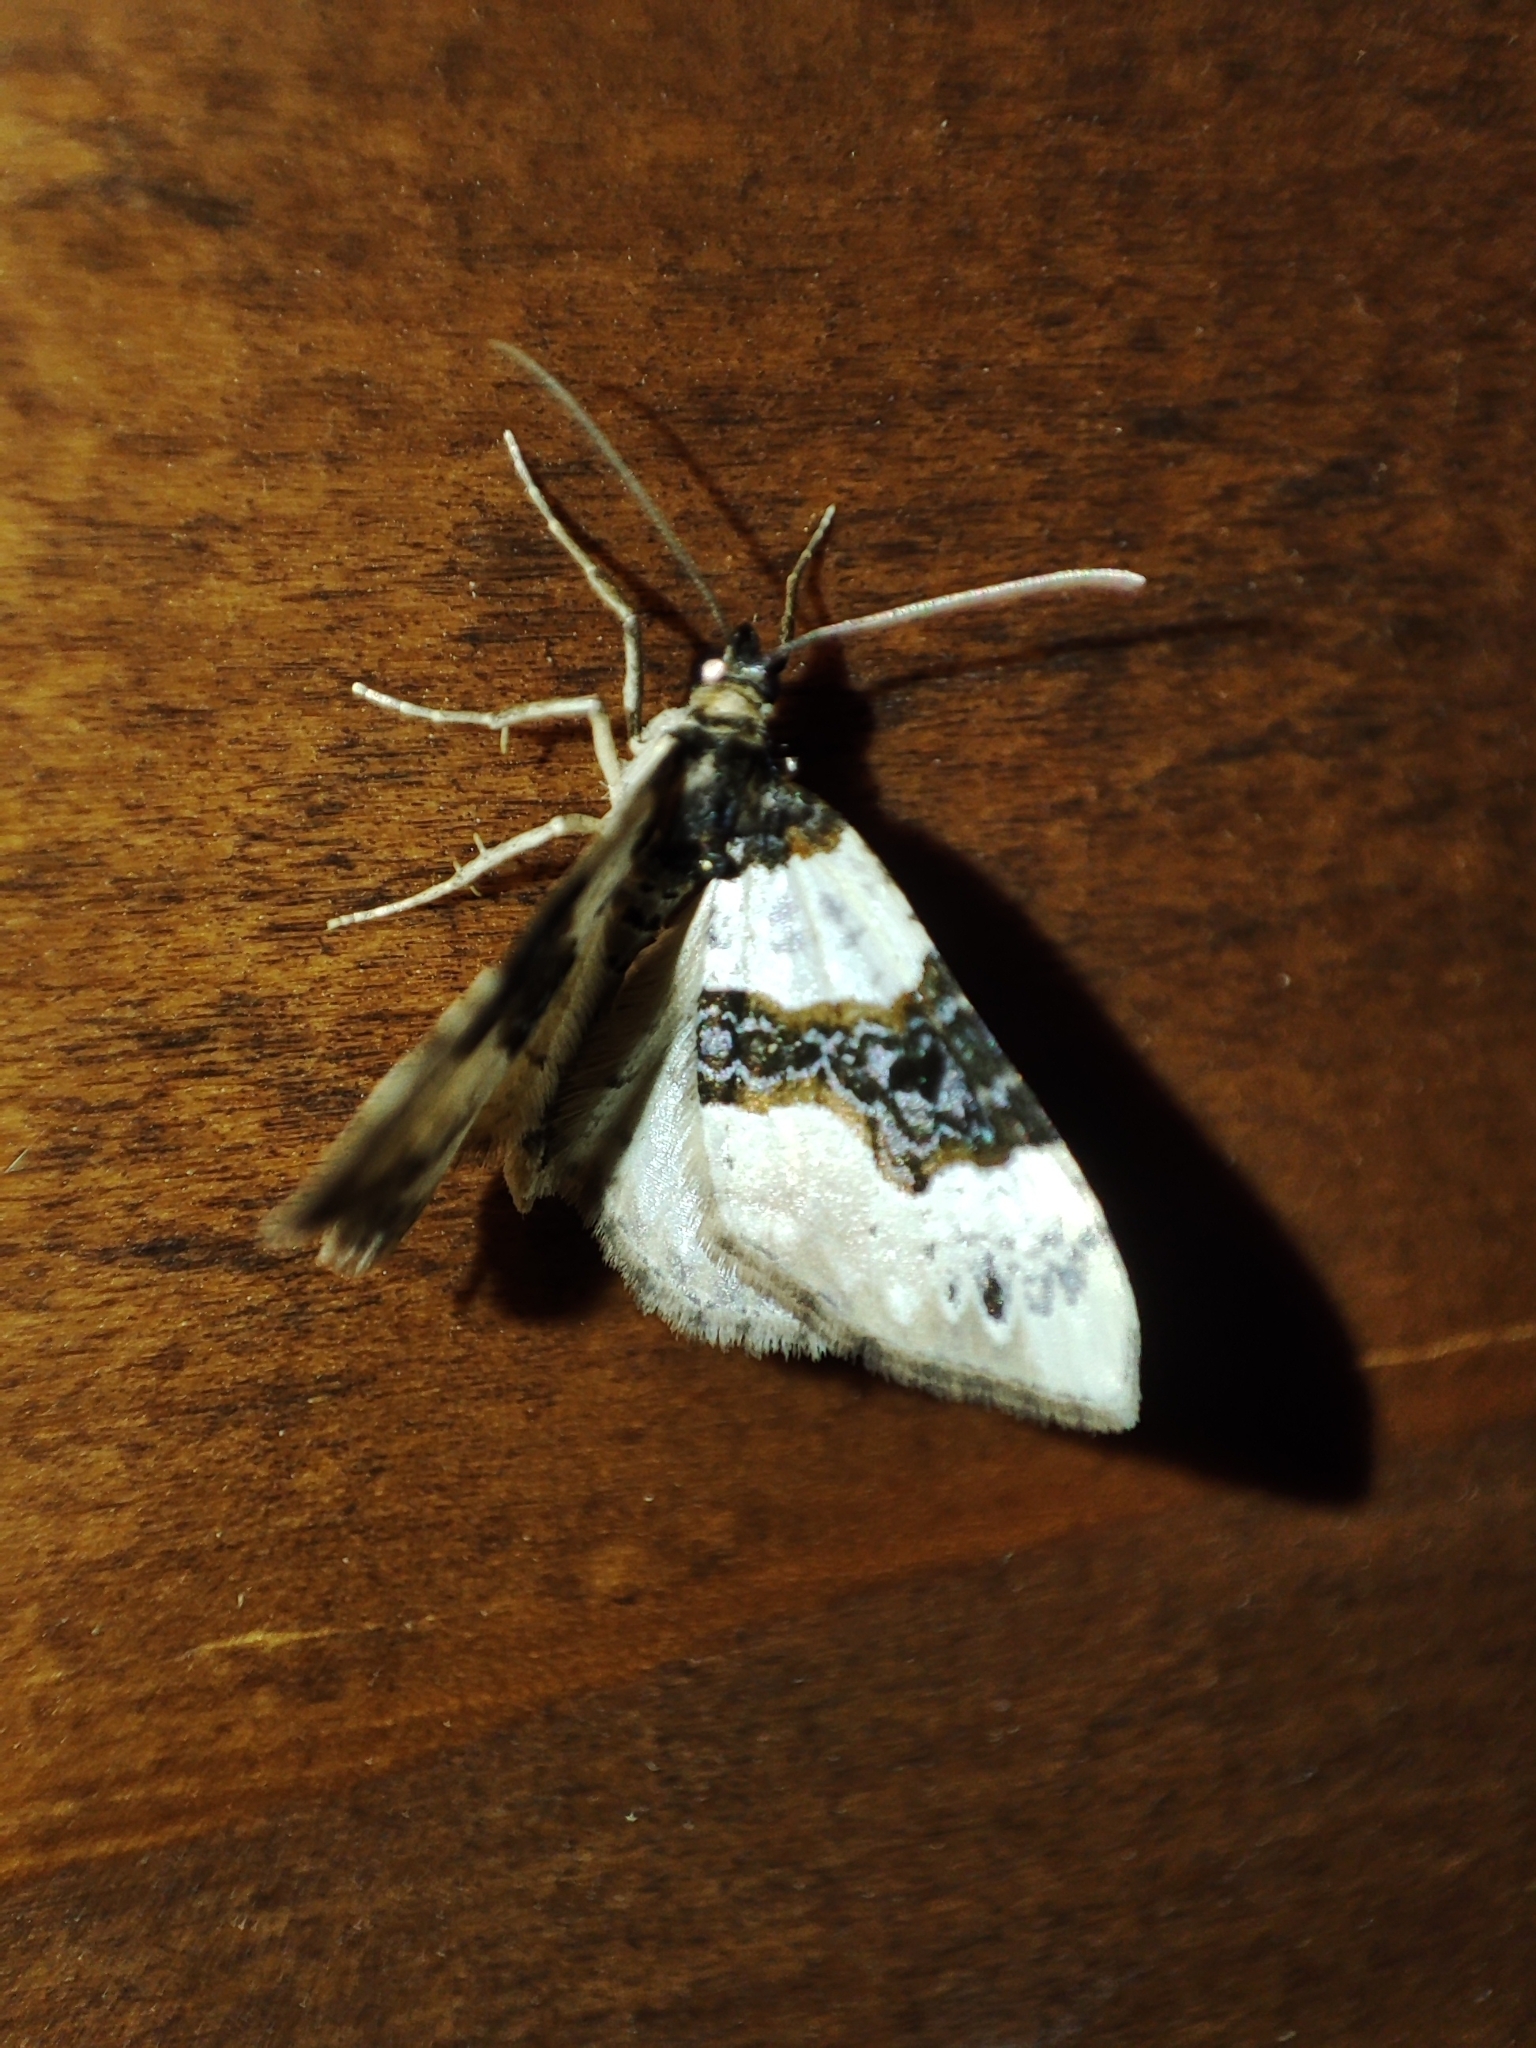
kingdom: Animalia
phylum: Arthropoda
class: Insecta
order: Lepidoptera
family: Geometridae
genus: Cosmorhoe
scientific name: Cosmorhoe ocellata
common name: Purple bar
